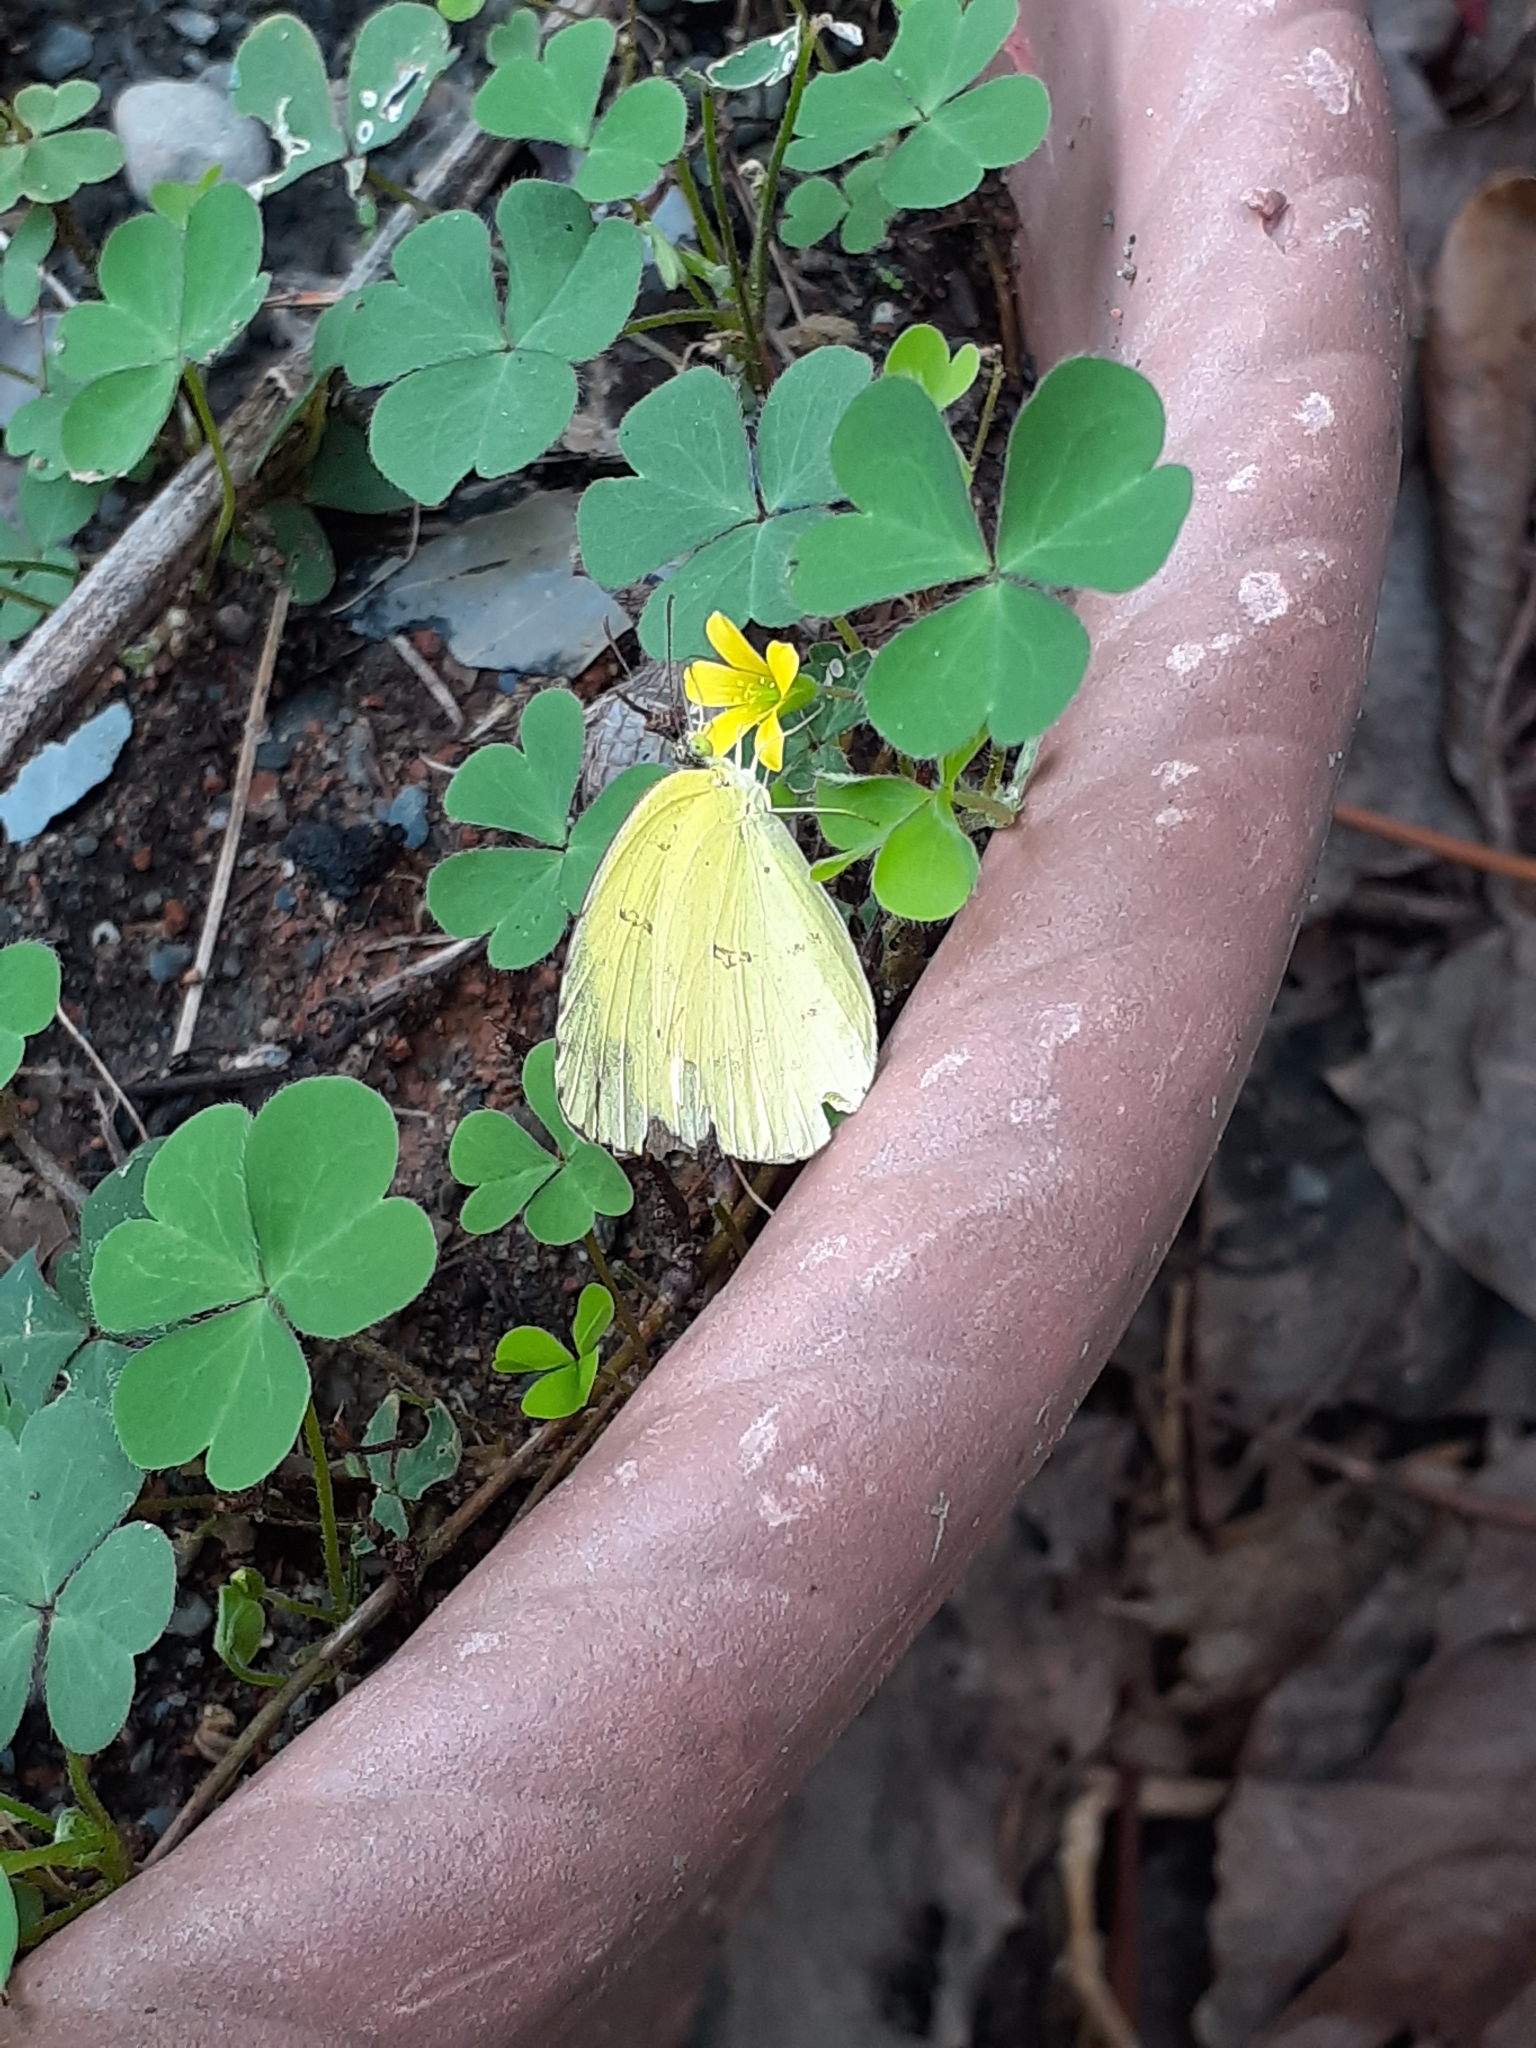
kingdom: Animalia
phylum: Arthropoda
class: Insecta
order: Lepidoptera
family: Pieridae
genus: Eurema
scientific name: Eurema blanda
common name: Three-spot grass yellow
